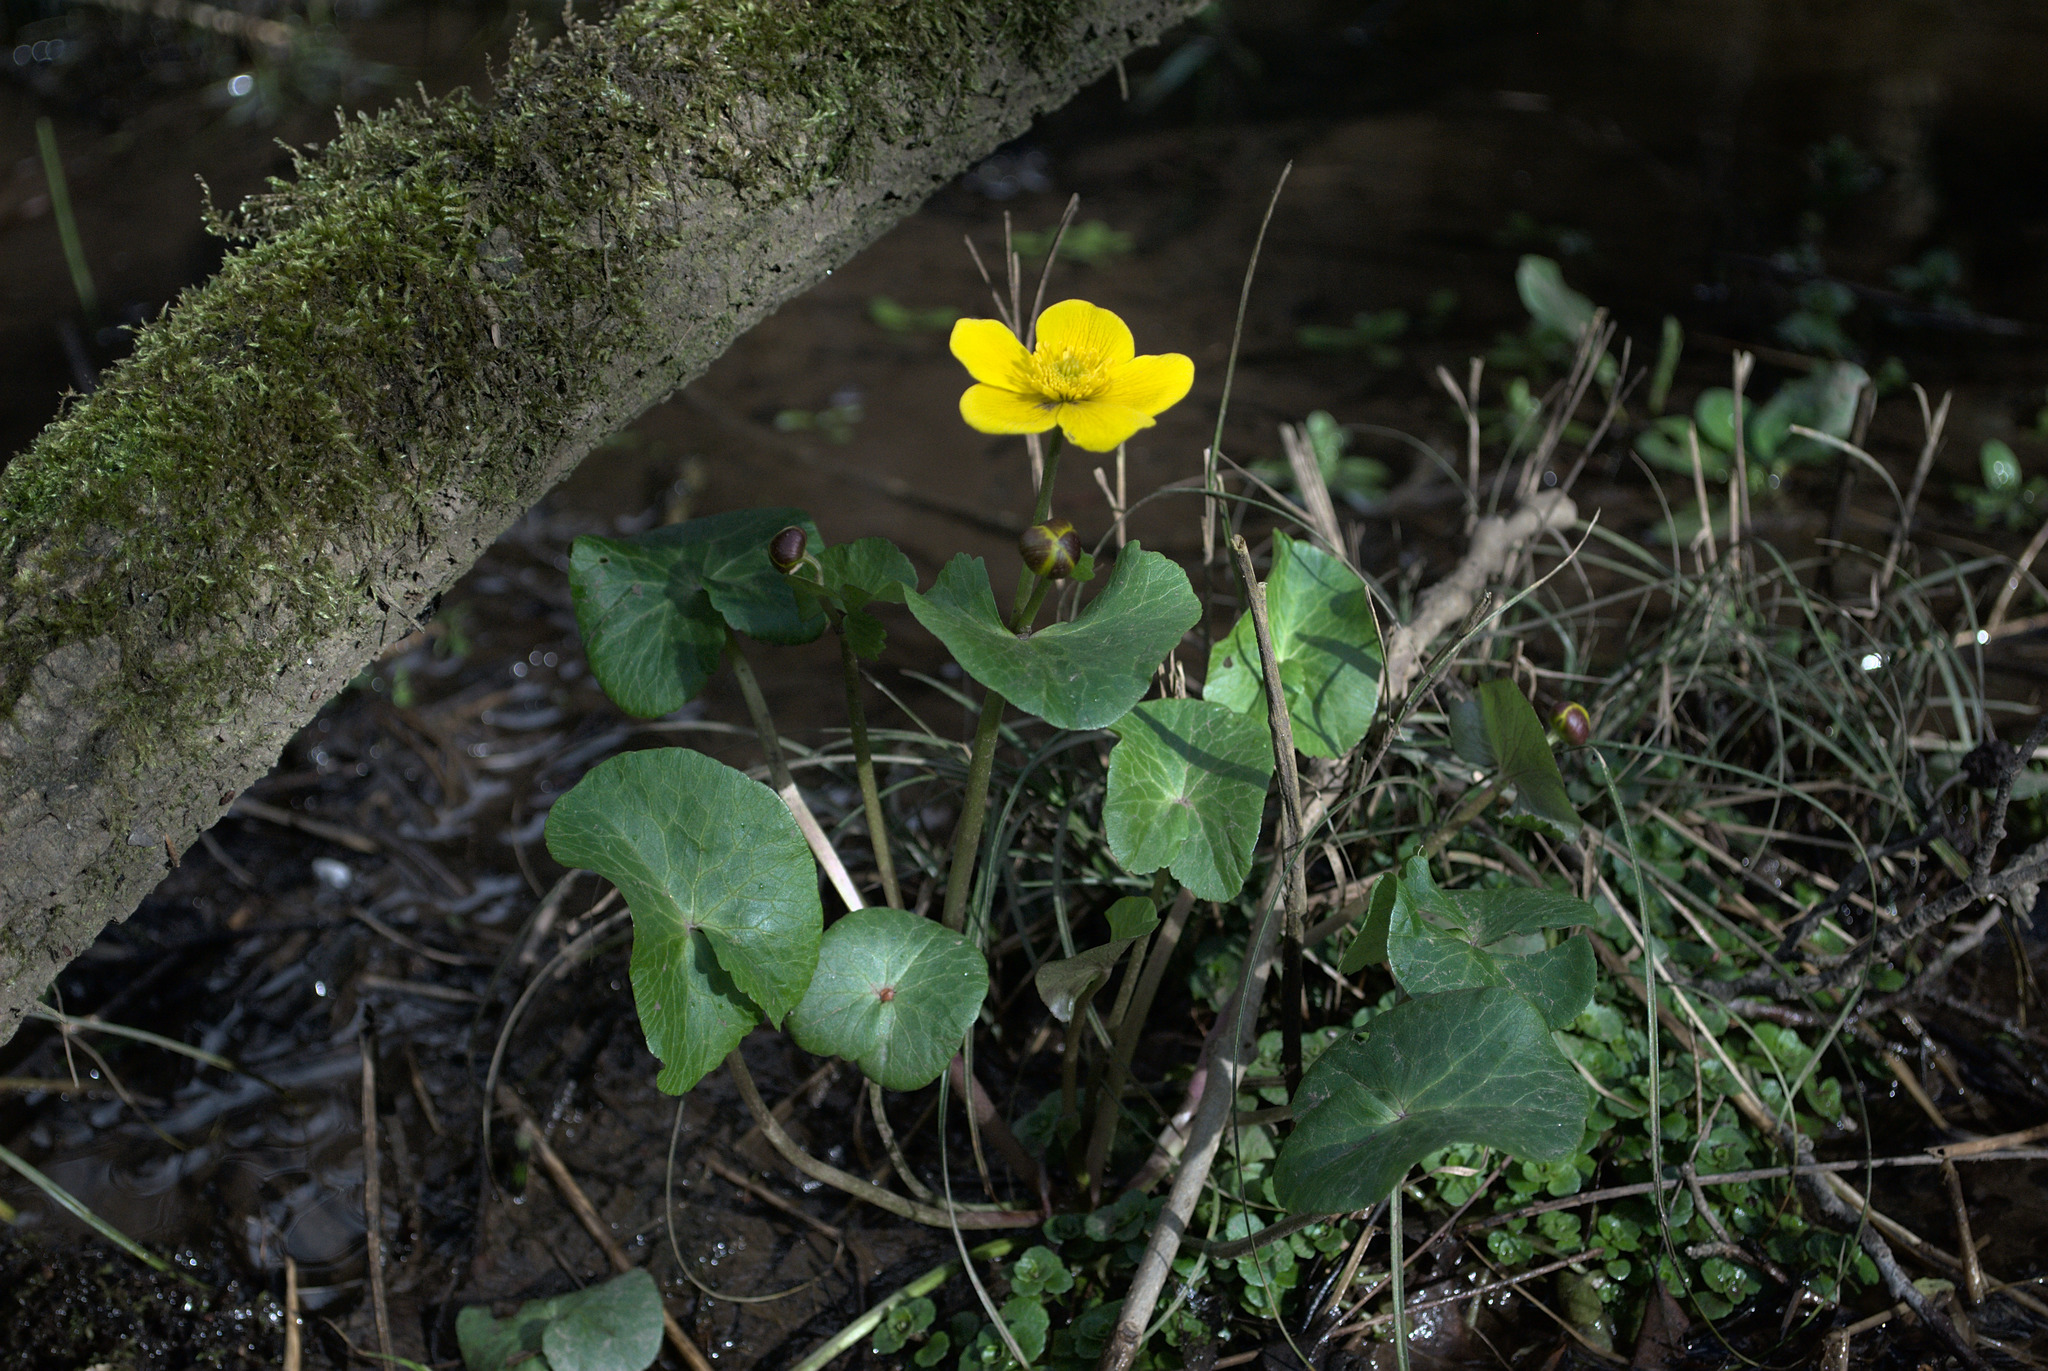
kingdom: Plantae
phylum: Tracheophyta
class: Magnoliopsida
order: Ranunculales
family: Ranunculaceae
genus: Caltha
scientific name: Caltha palustris
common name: Marsh marigold
